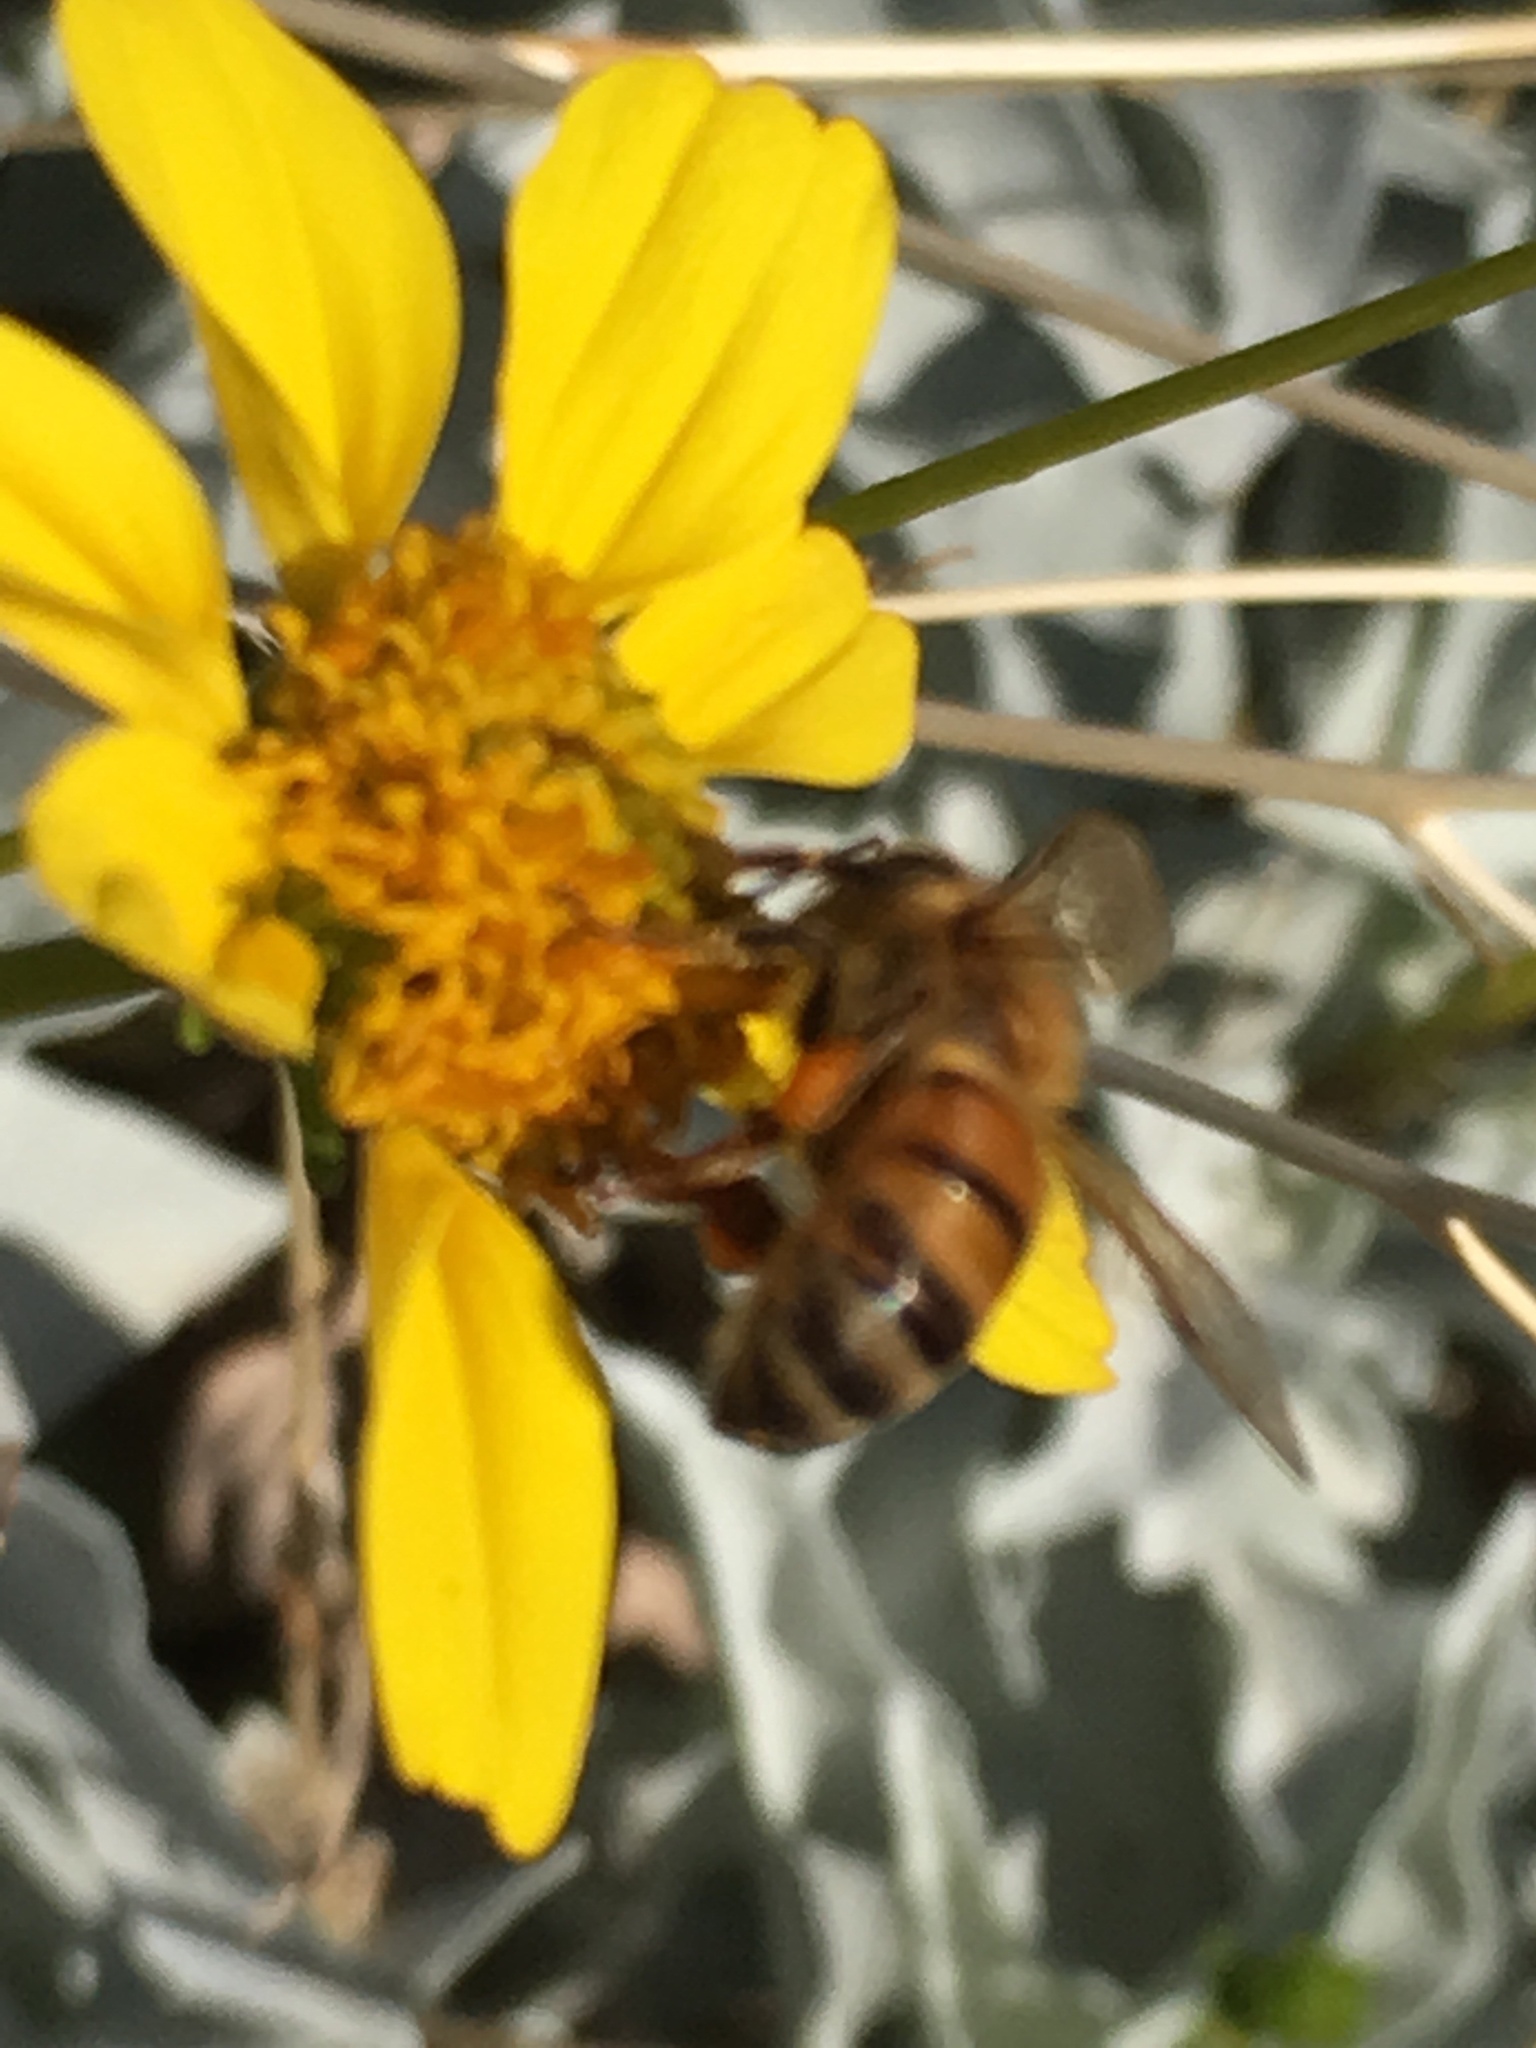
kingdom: Animalia
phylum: Arthropoda
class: Insecta
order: Hymenoptera
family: Apidae
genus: Apis
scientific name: Apis mellifera
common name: Honey bee
